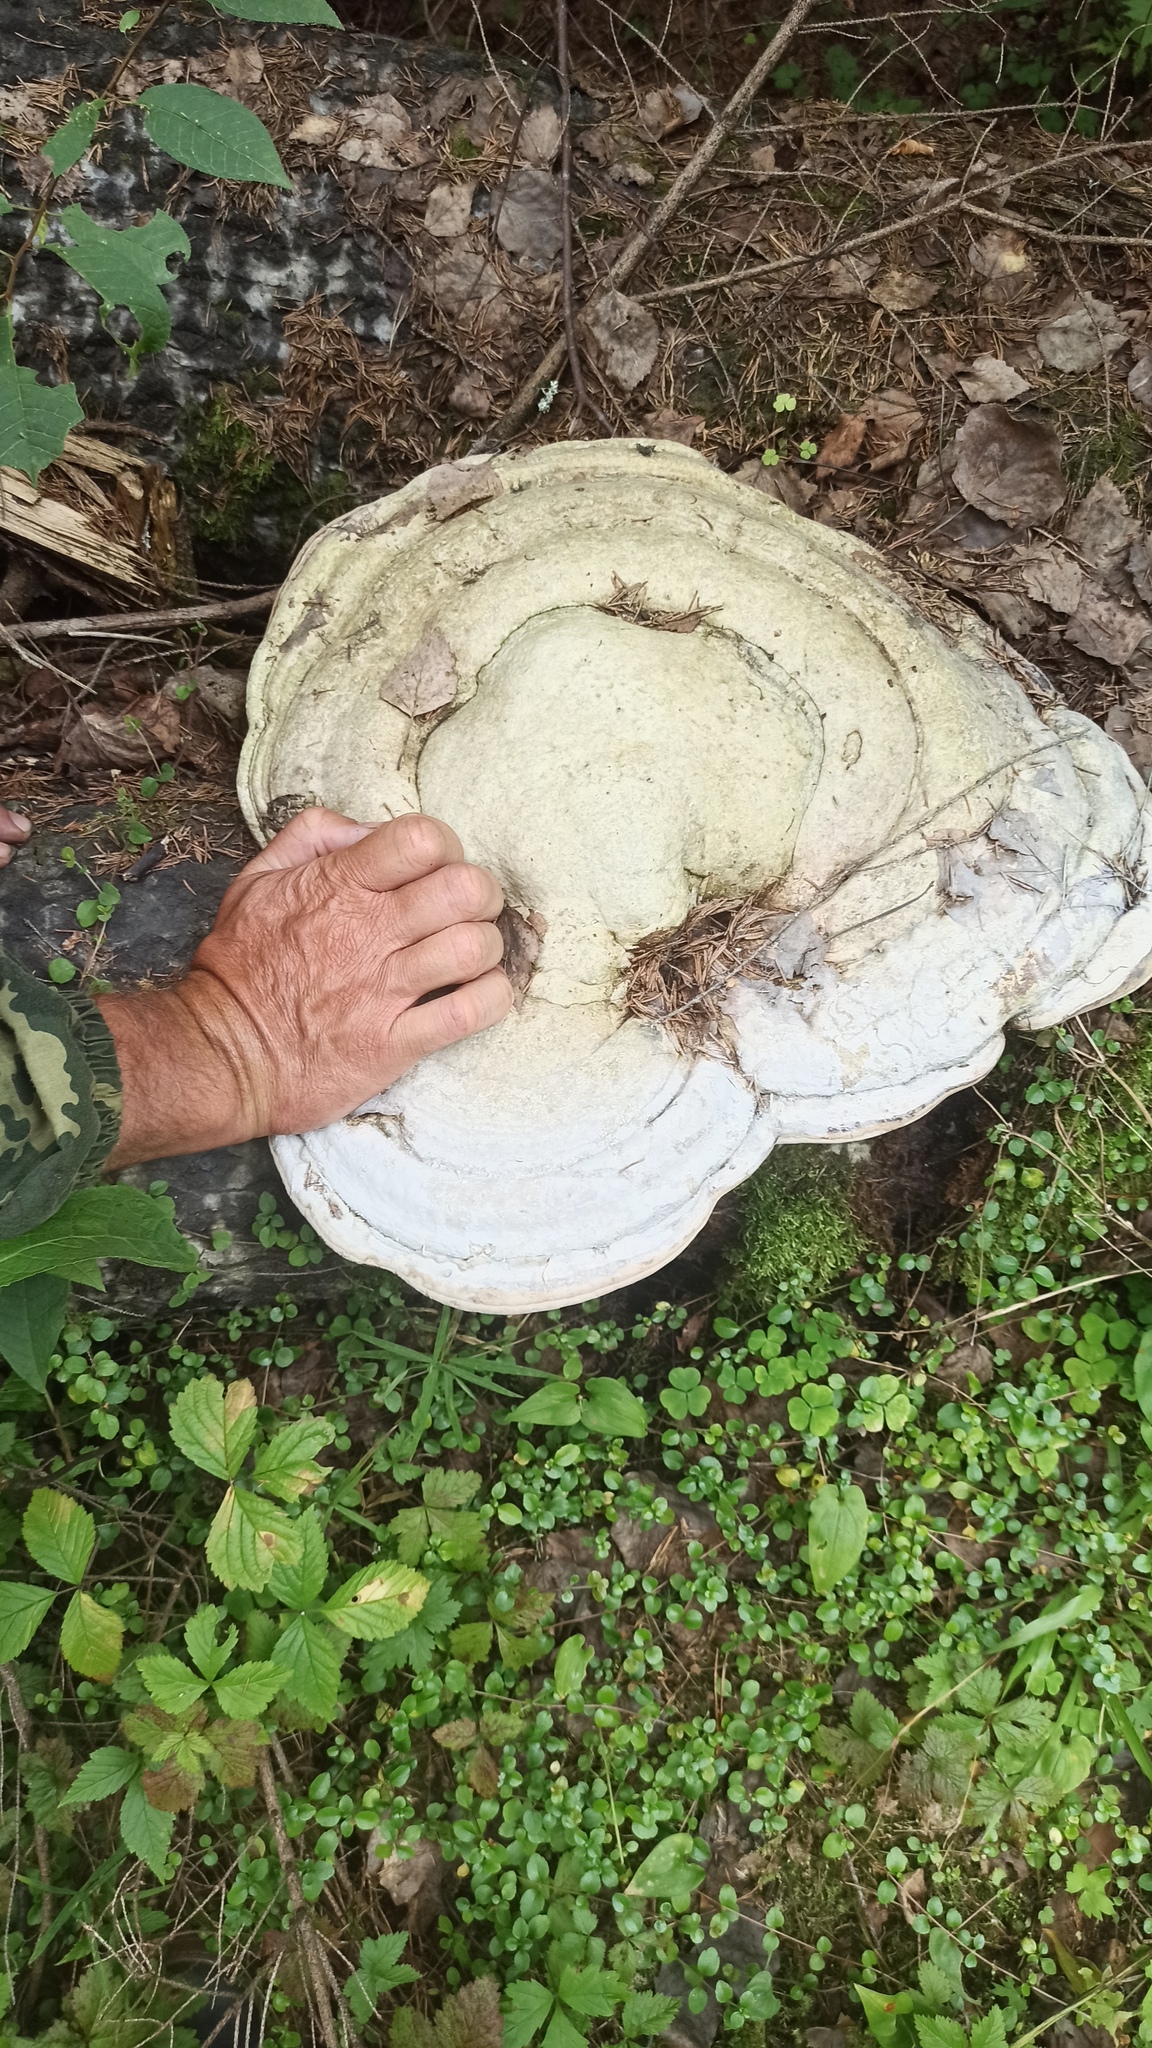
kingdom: Fungi
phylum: Basidiomycota
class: Agaricomycetes
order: Polyporales
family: Polyporaceae
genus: Fomes
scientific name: Fomes fomentarius
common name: Hoof fungus
